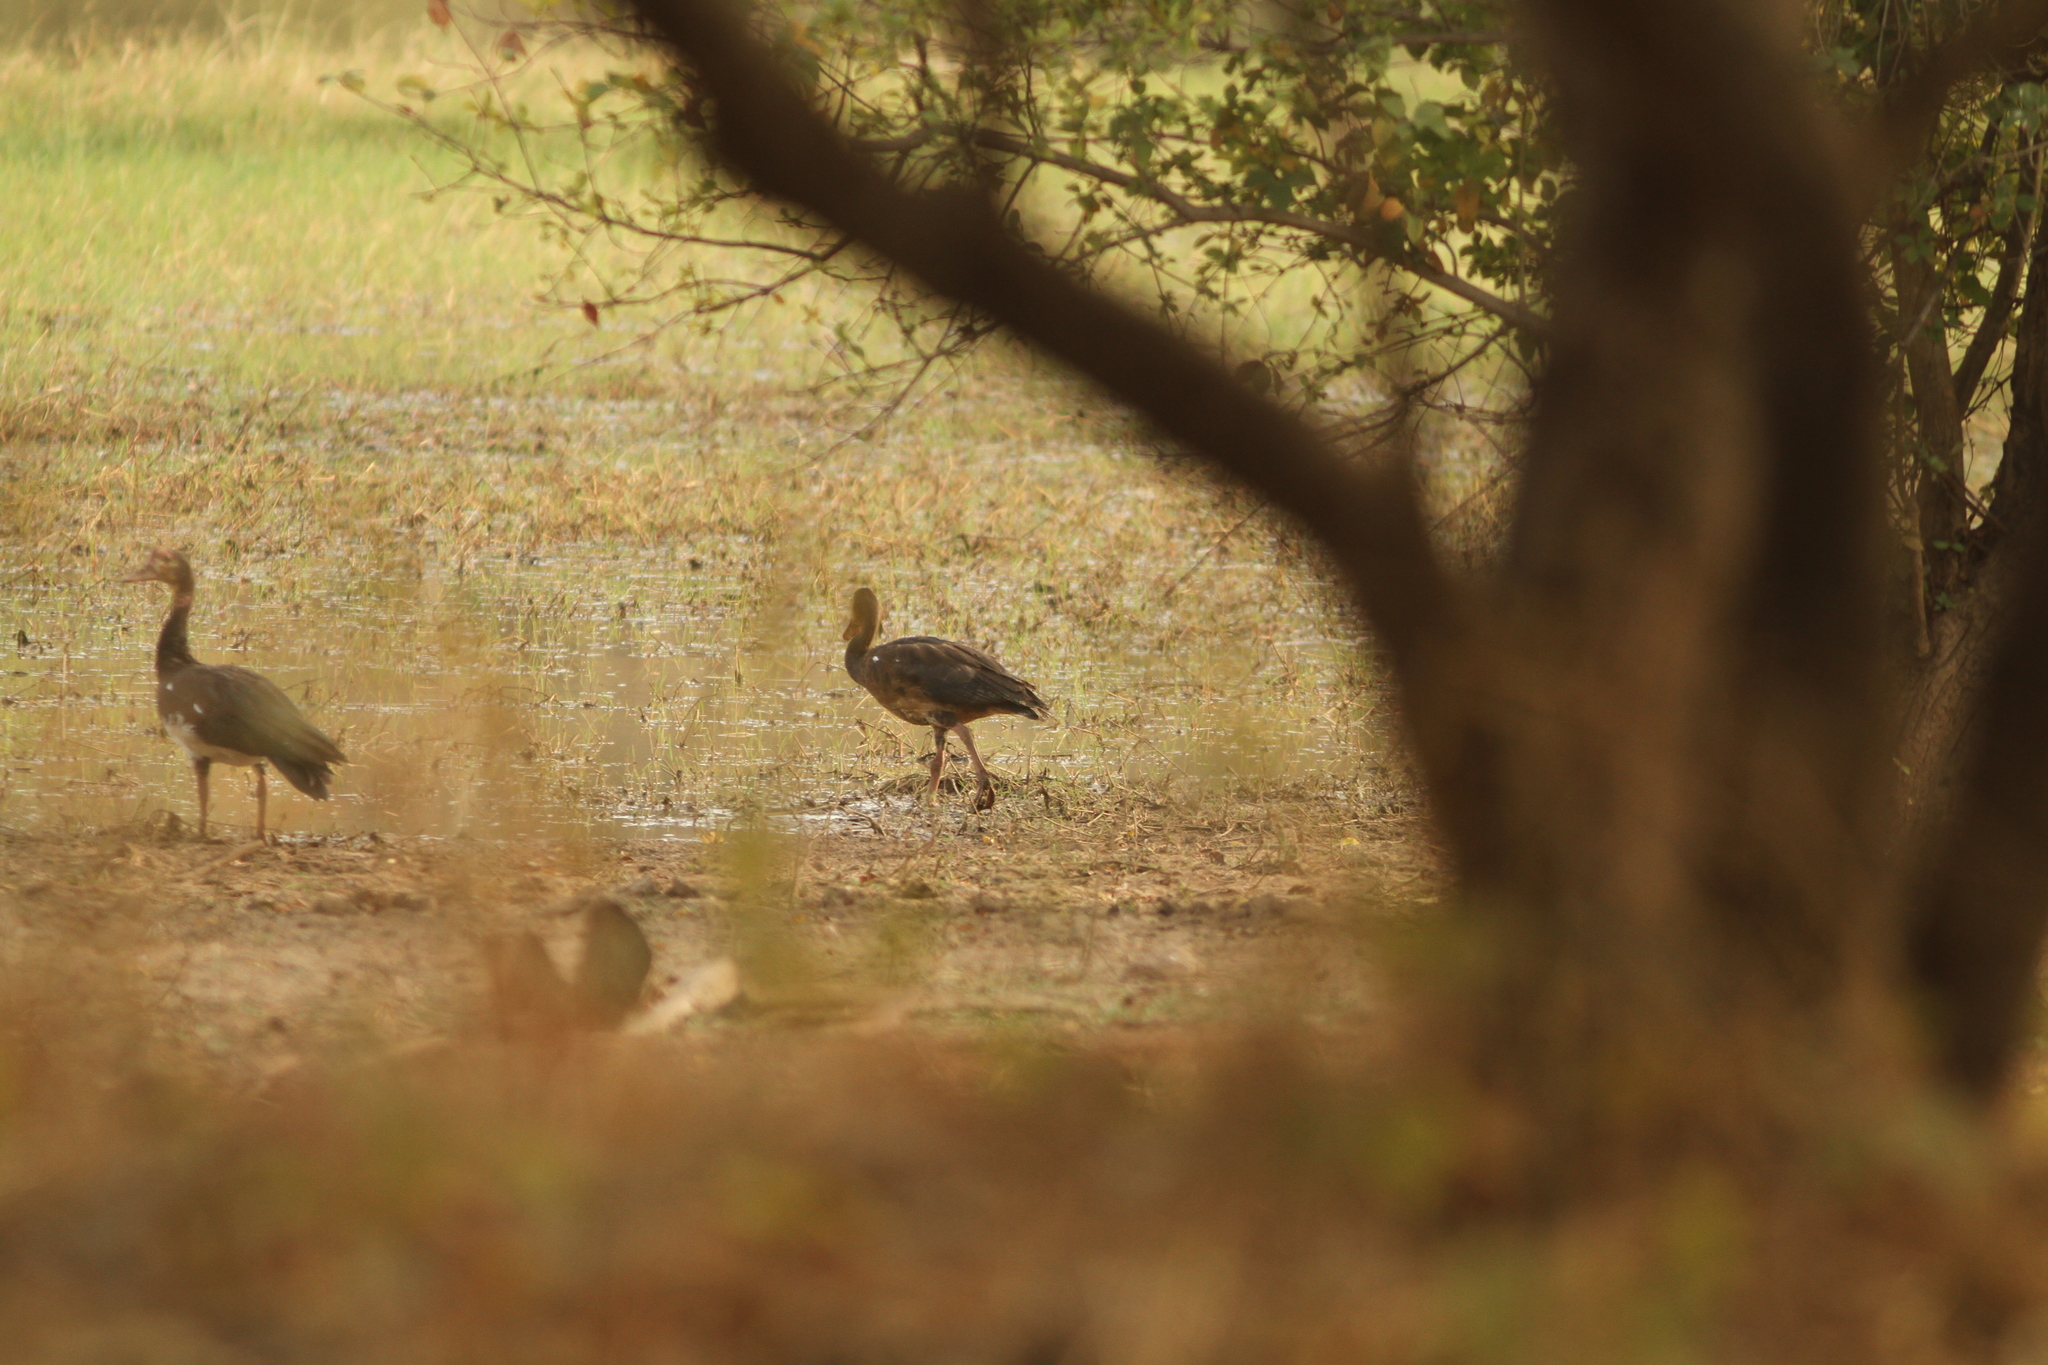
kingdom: Animalia
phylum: Chordata
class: Aves
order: Anseriformes
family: Anatidae
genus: Plectropterus
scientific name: Plectropterus gambensis
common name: Spur-winged goose
